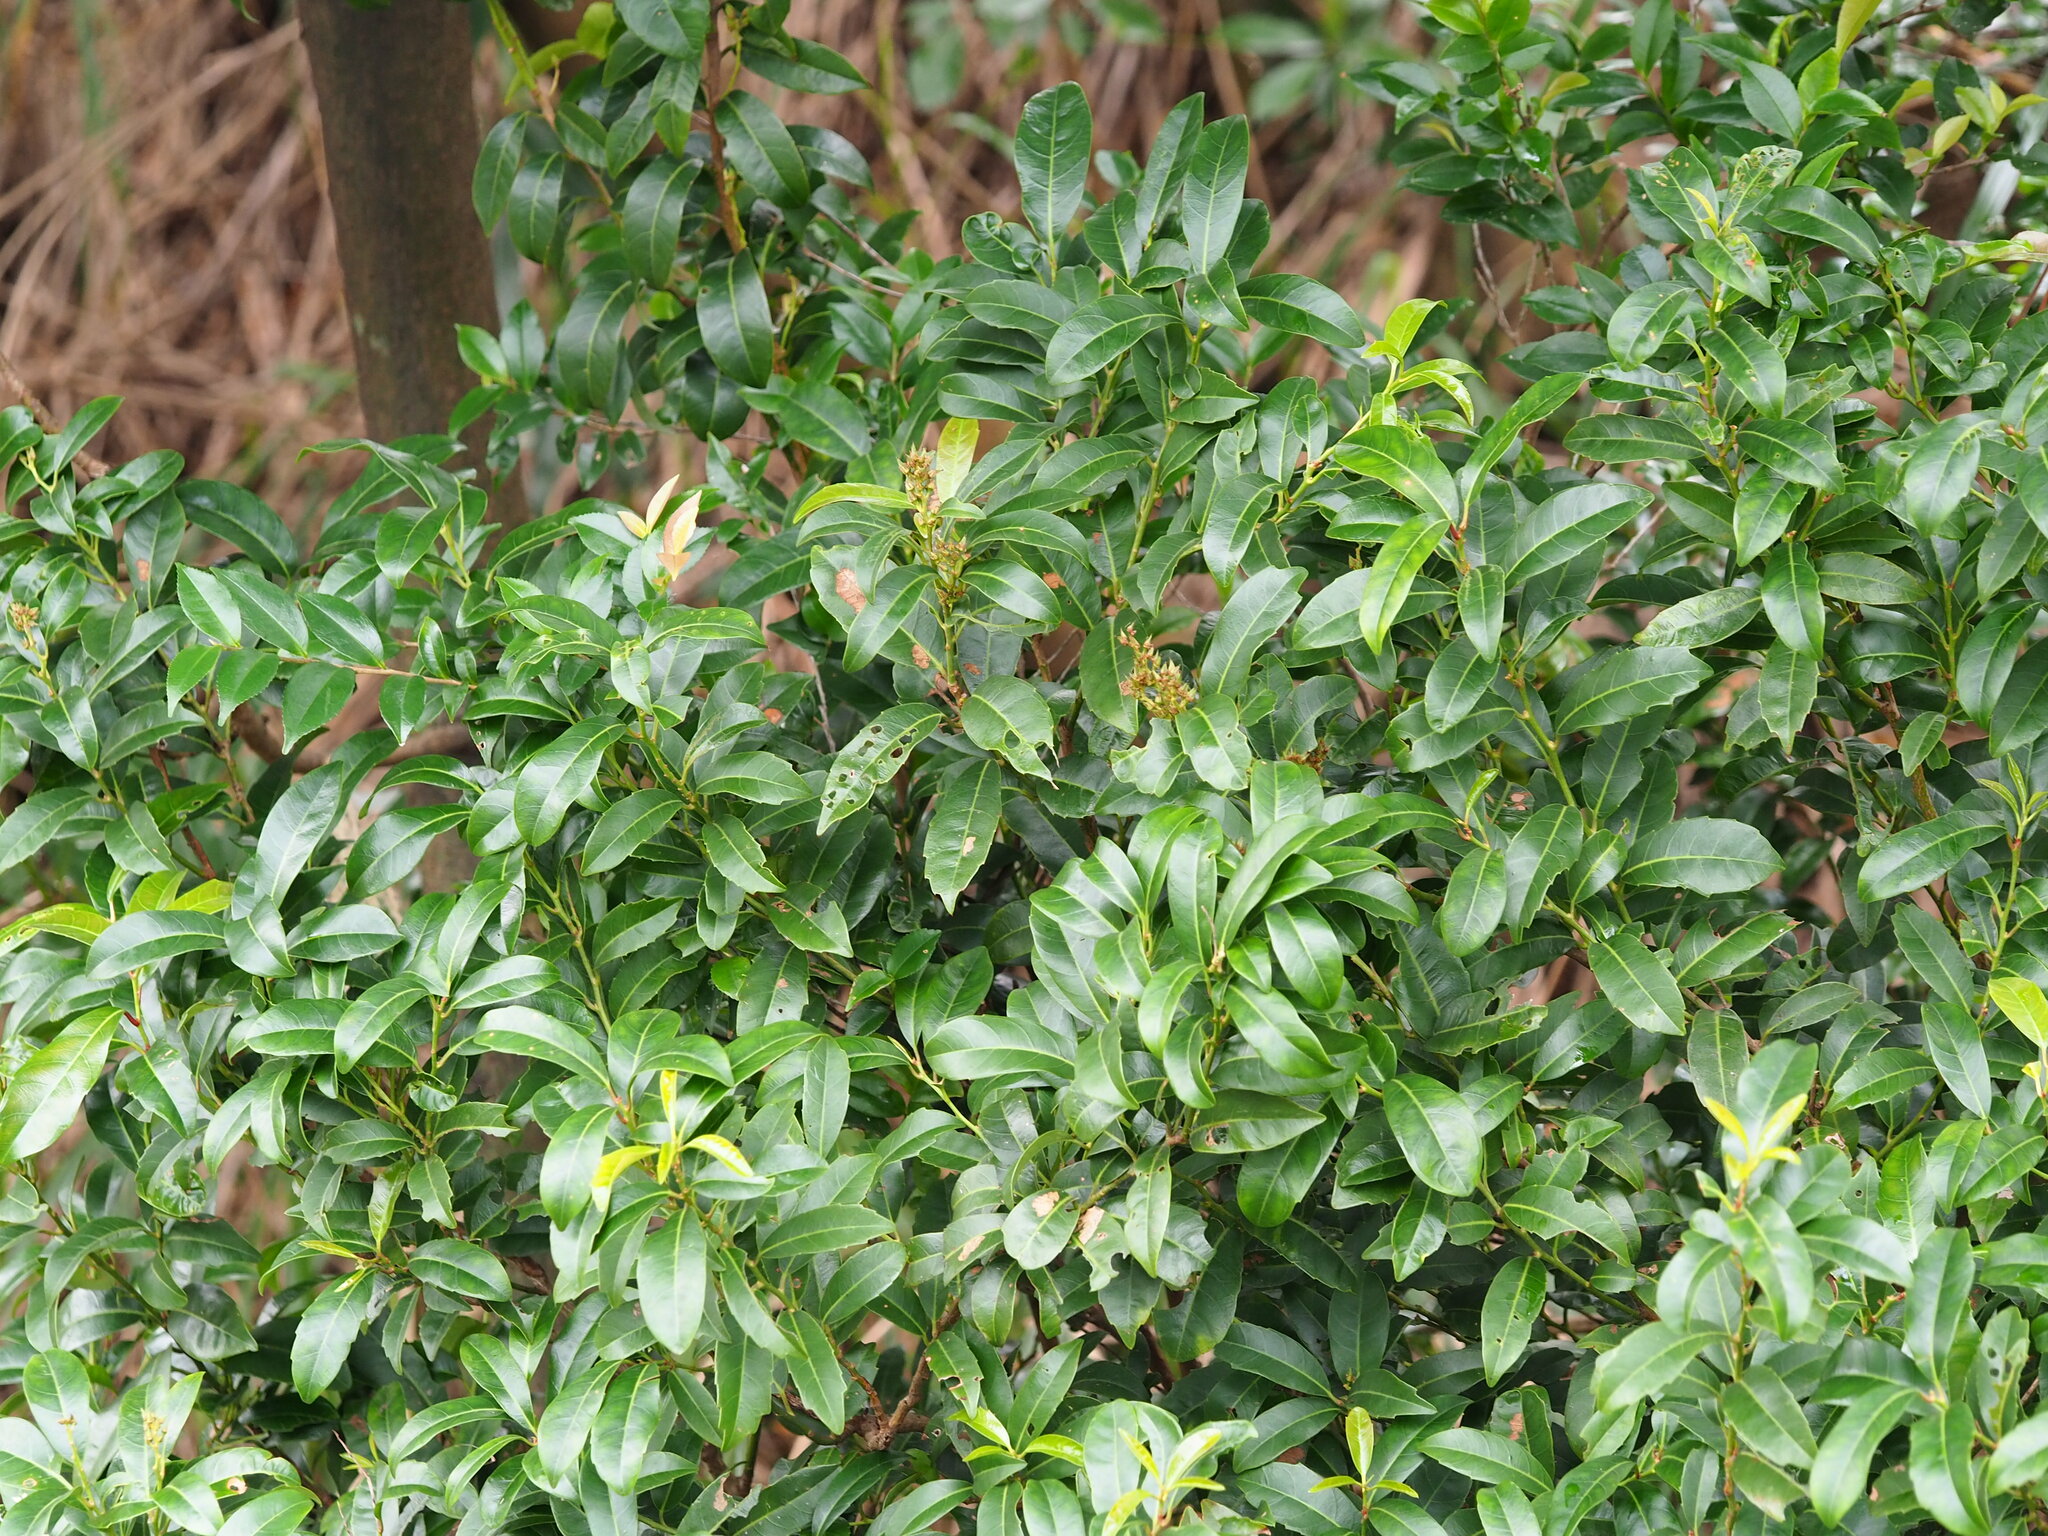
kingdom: Plantae
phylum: Tracheophyta
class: Magnoliopsida
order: Saxifragales
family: Iteaceae
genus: Itea
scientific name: Itea oldhamii
